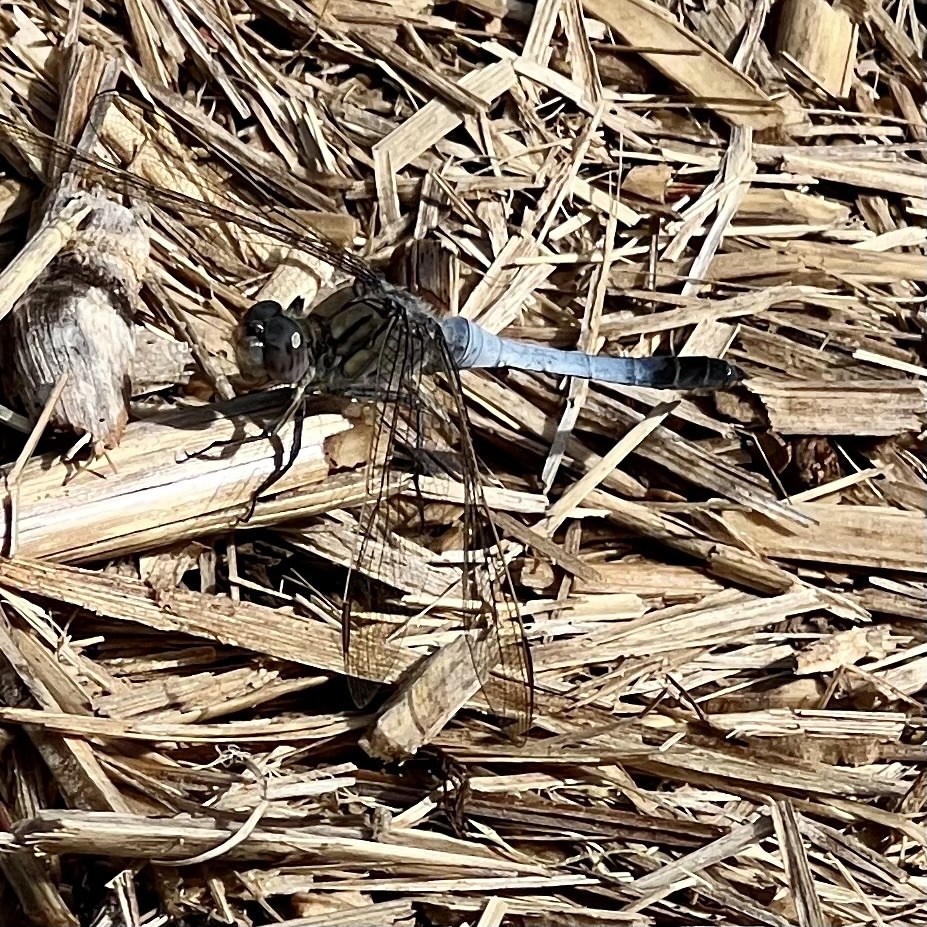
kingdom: Animalia
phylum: Arthropoda
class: Insecta
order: Odonata
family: Libellulidae
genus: Orthetrum
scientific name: Orthetrum caledonicum
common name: Blue skimmer
